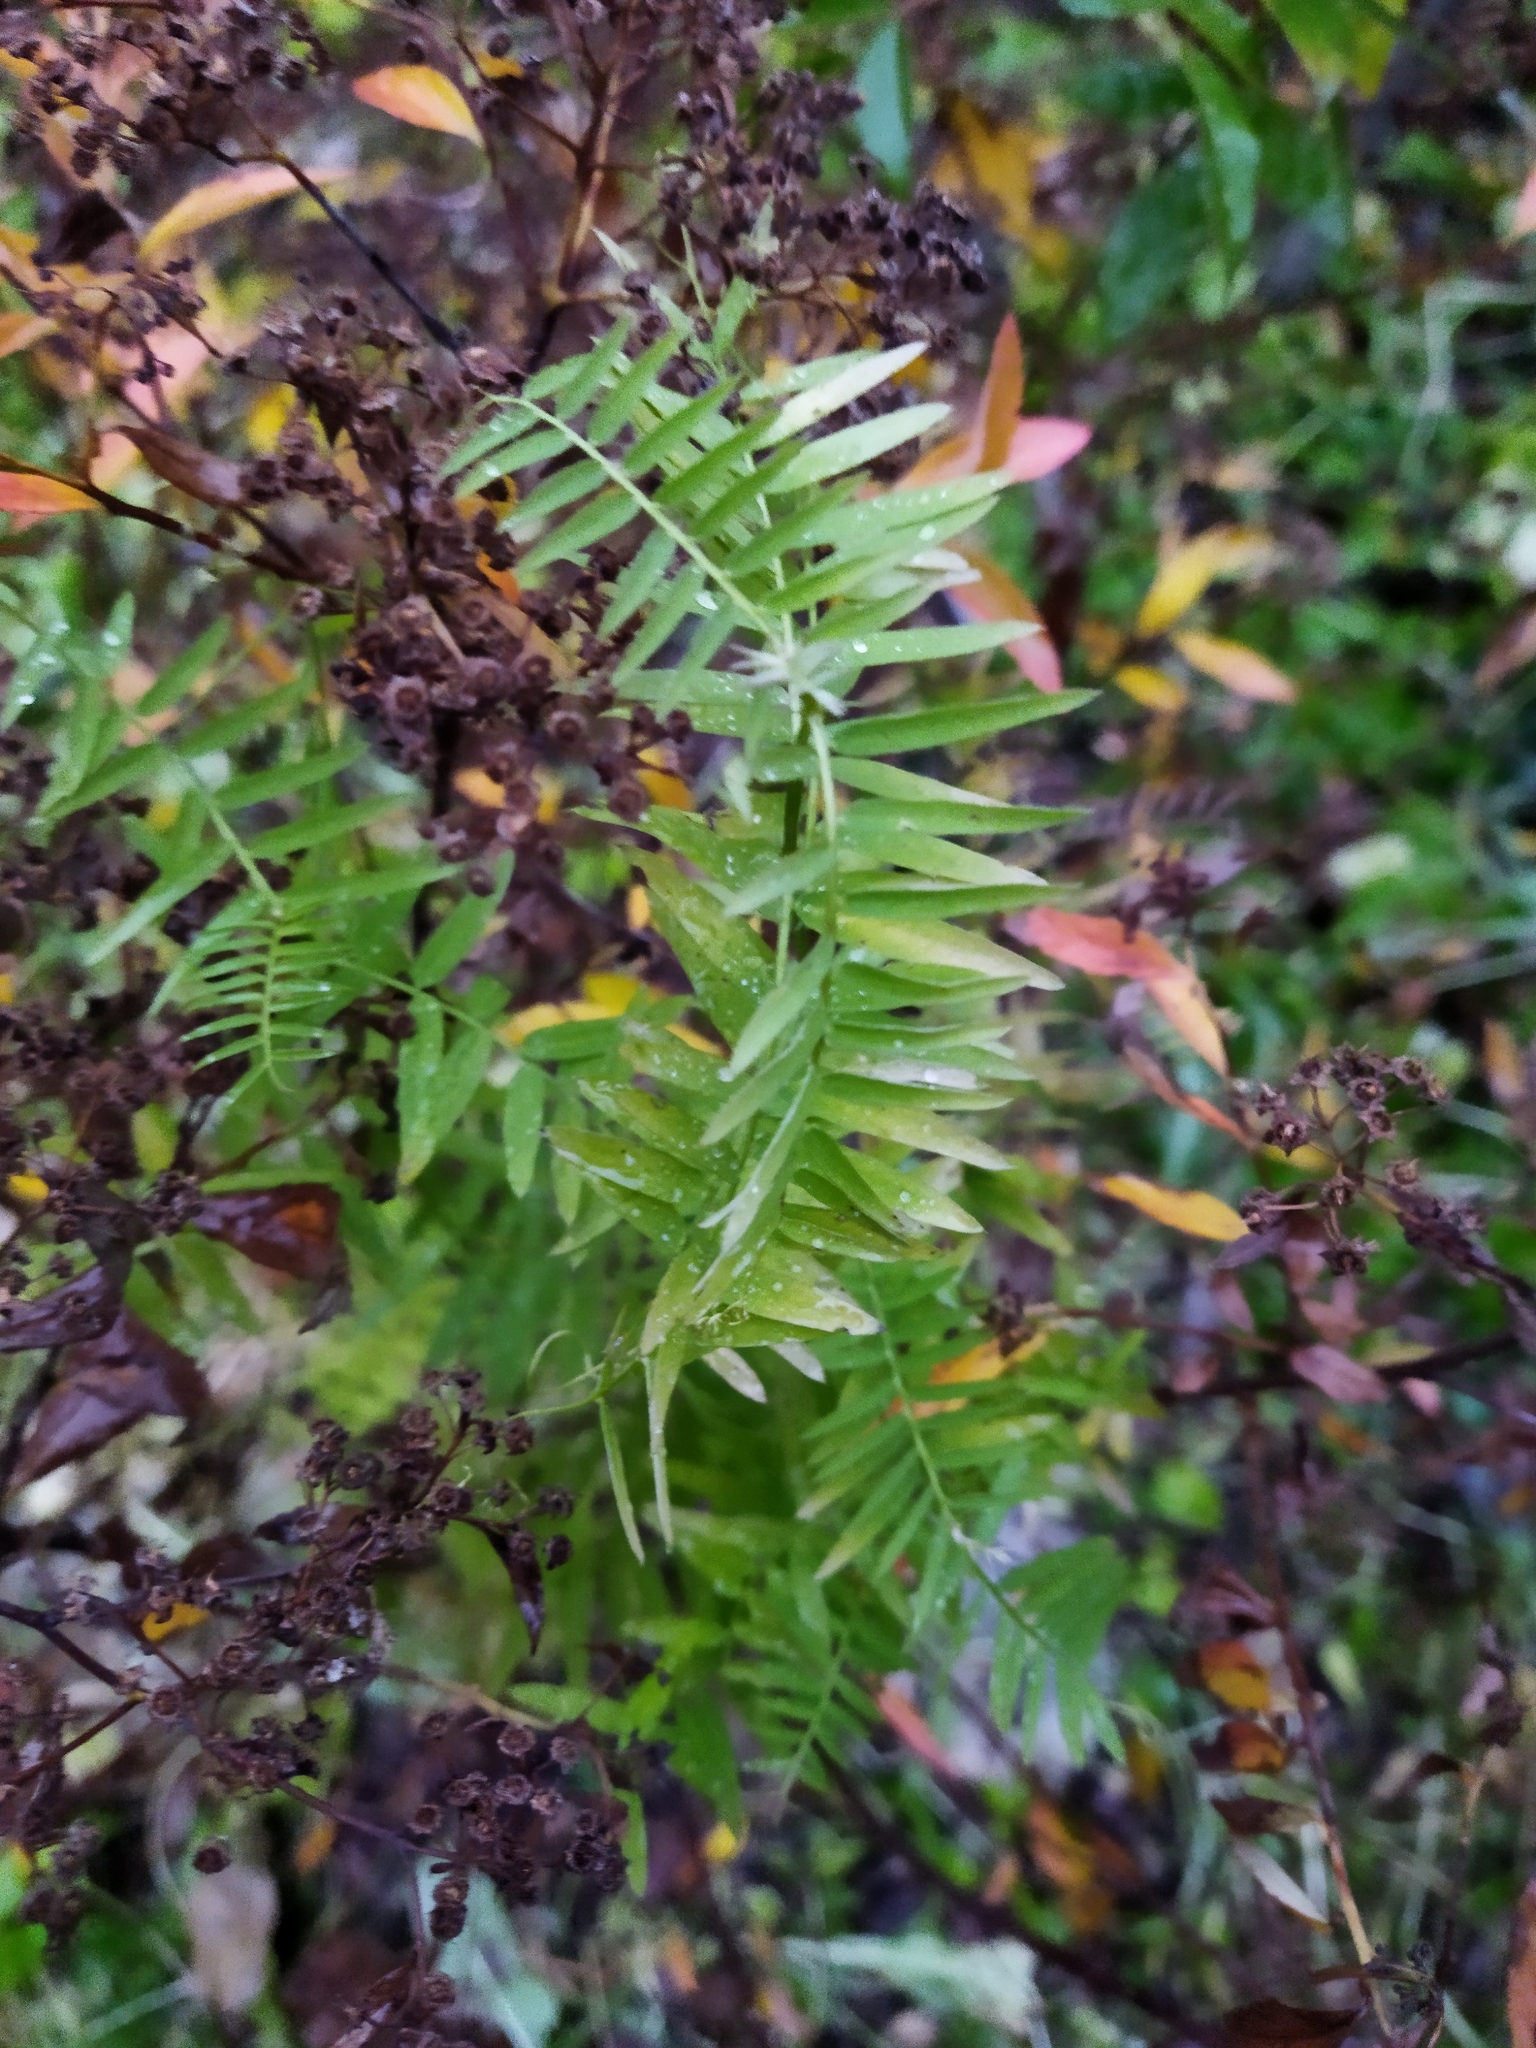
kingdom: Plantae
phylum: Tracheophyta
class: Magnoliopsida
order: Fabales
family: Fabaceae
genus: Vicia
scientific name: Vicia cracca
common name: Bird vetch
